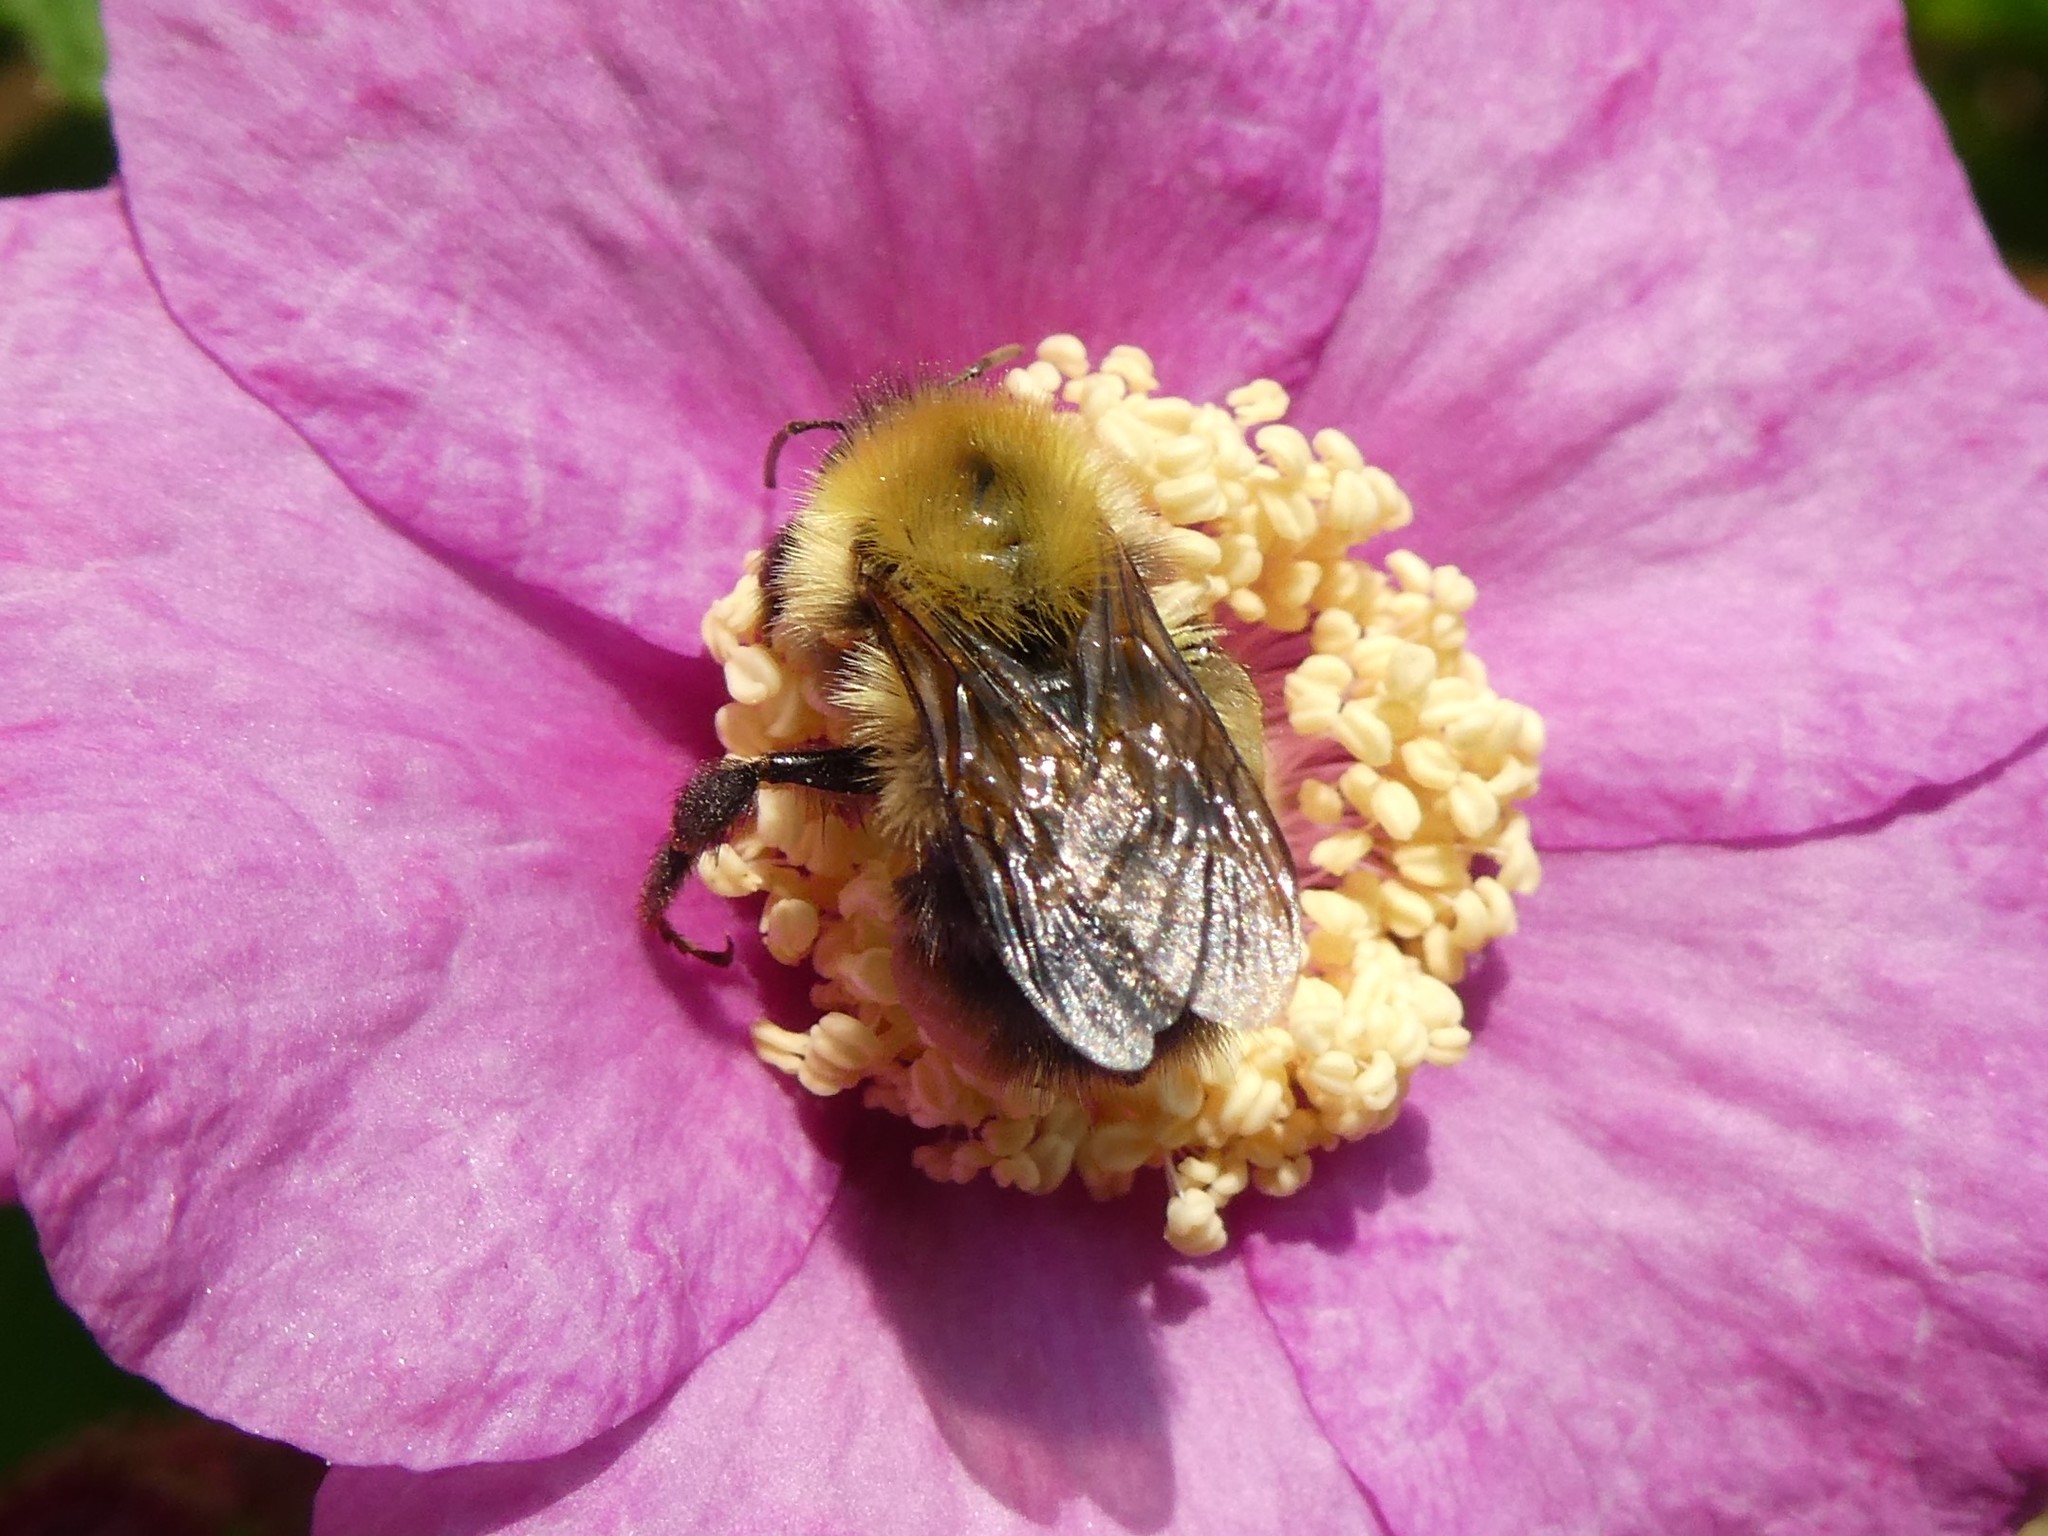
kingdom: Animalia
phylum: Arthropoda
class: Insecta
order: Hymenoptera
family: Apidae
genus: Bombus
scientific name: Bombus perplexus
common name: Confusing bumble bee
